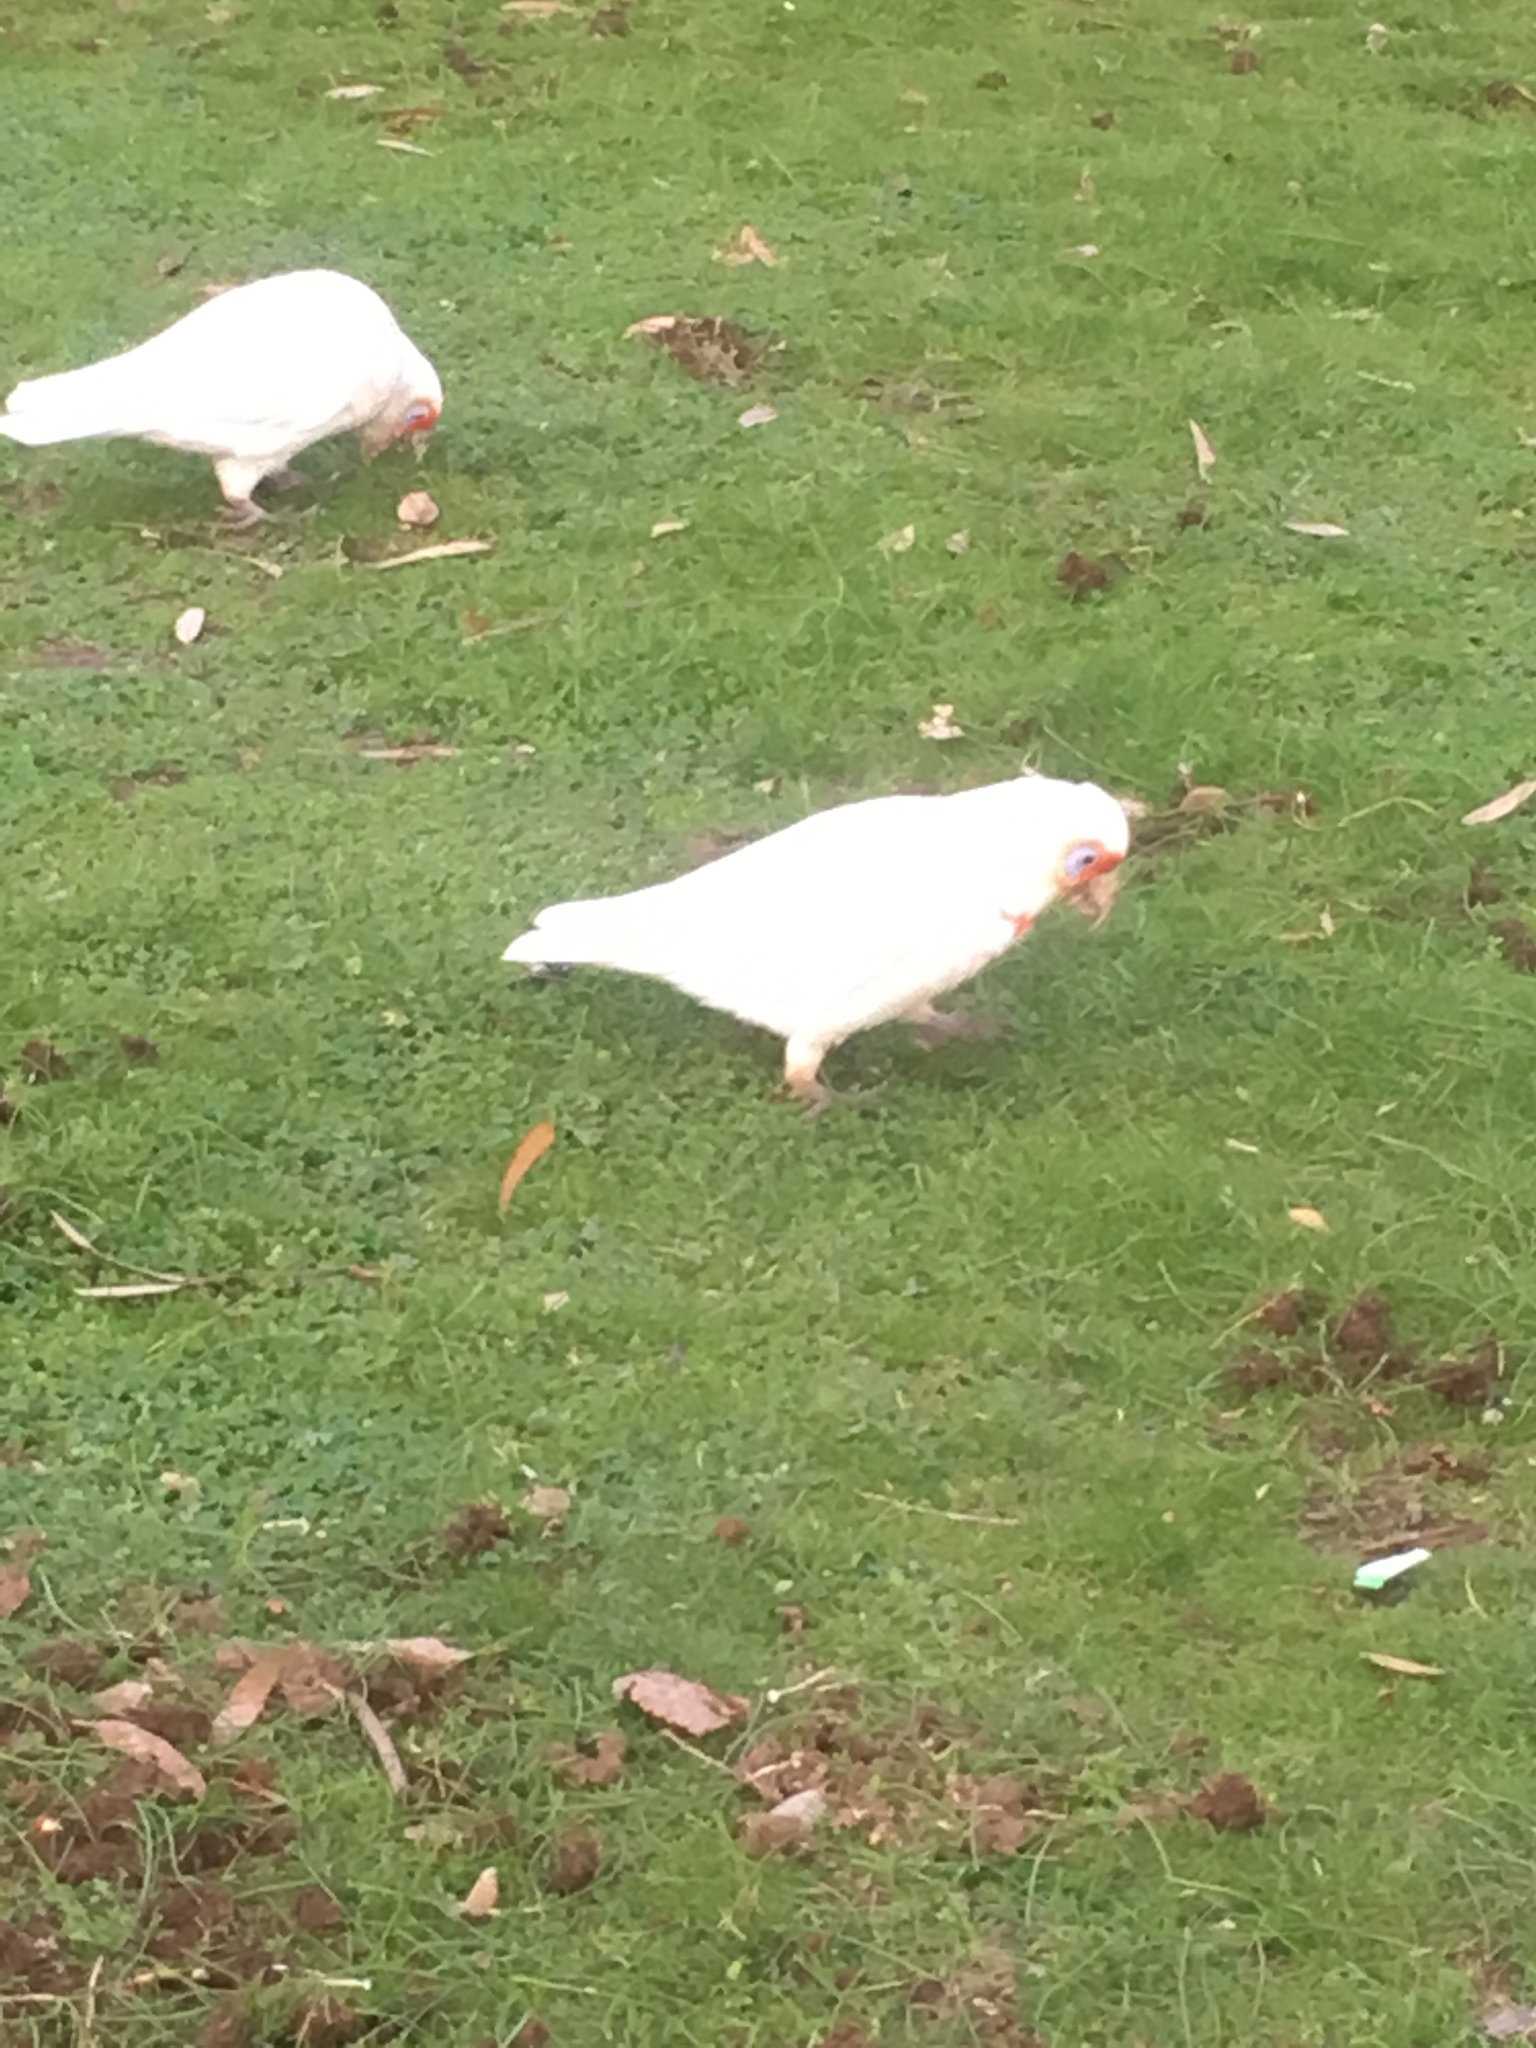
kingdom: Animalia
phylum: Chordata
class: Aves
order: Psittaciformes
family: Psittacidae
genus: Cacatua
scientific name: Cacatua tenuirostris
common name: Long-billed corella
